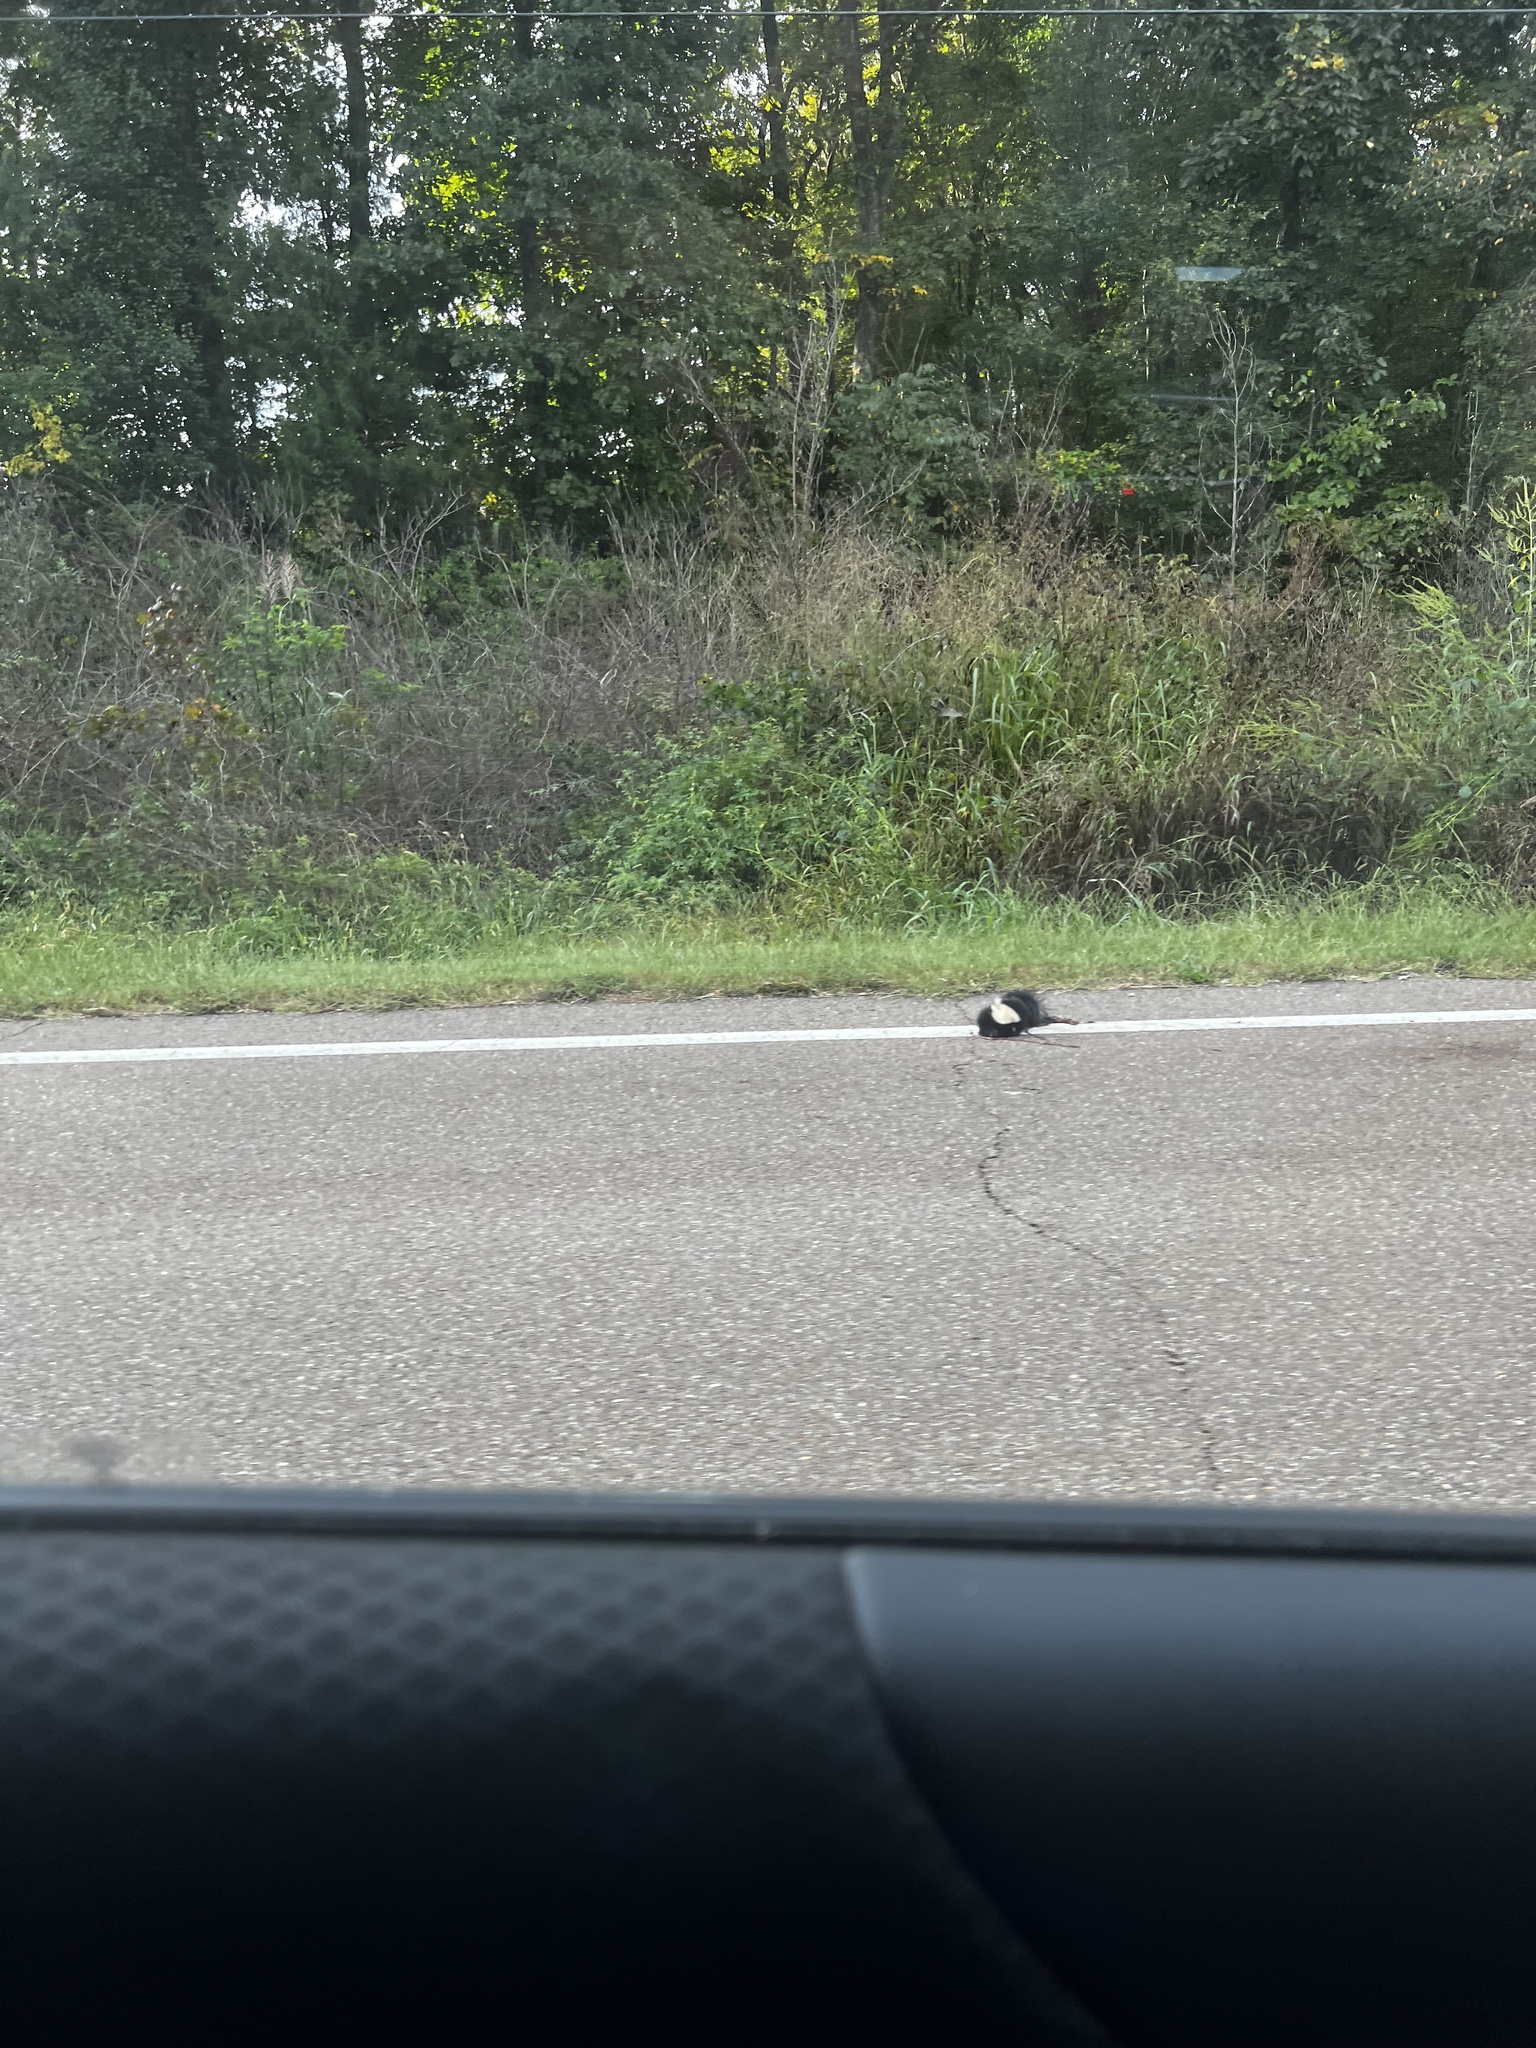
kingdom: Animalia
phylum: Chordata
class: Mammalia
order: Carnivora
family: Mephitidae
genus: Mephitis
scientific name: Mephitis mephitis
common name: Striped skunk
